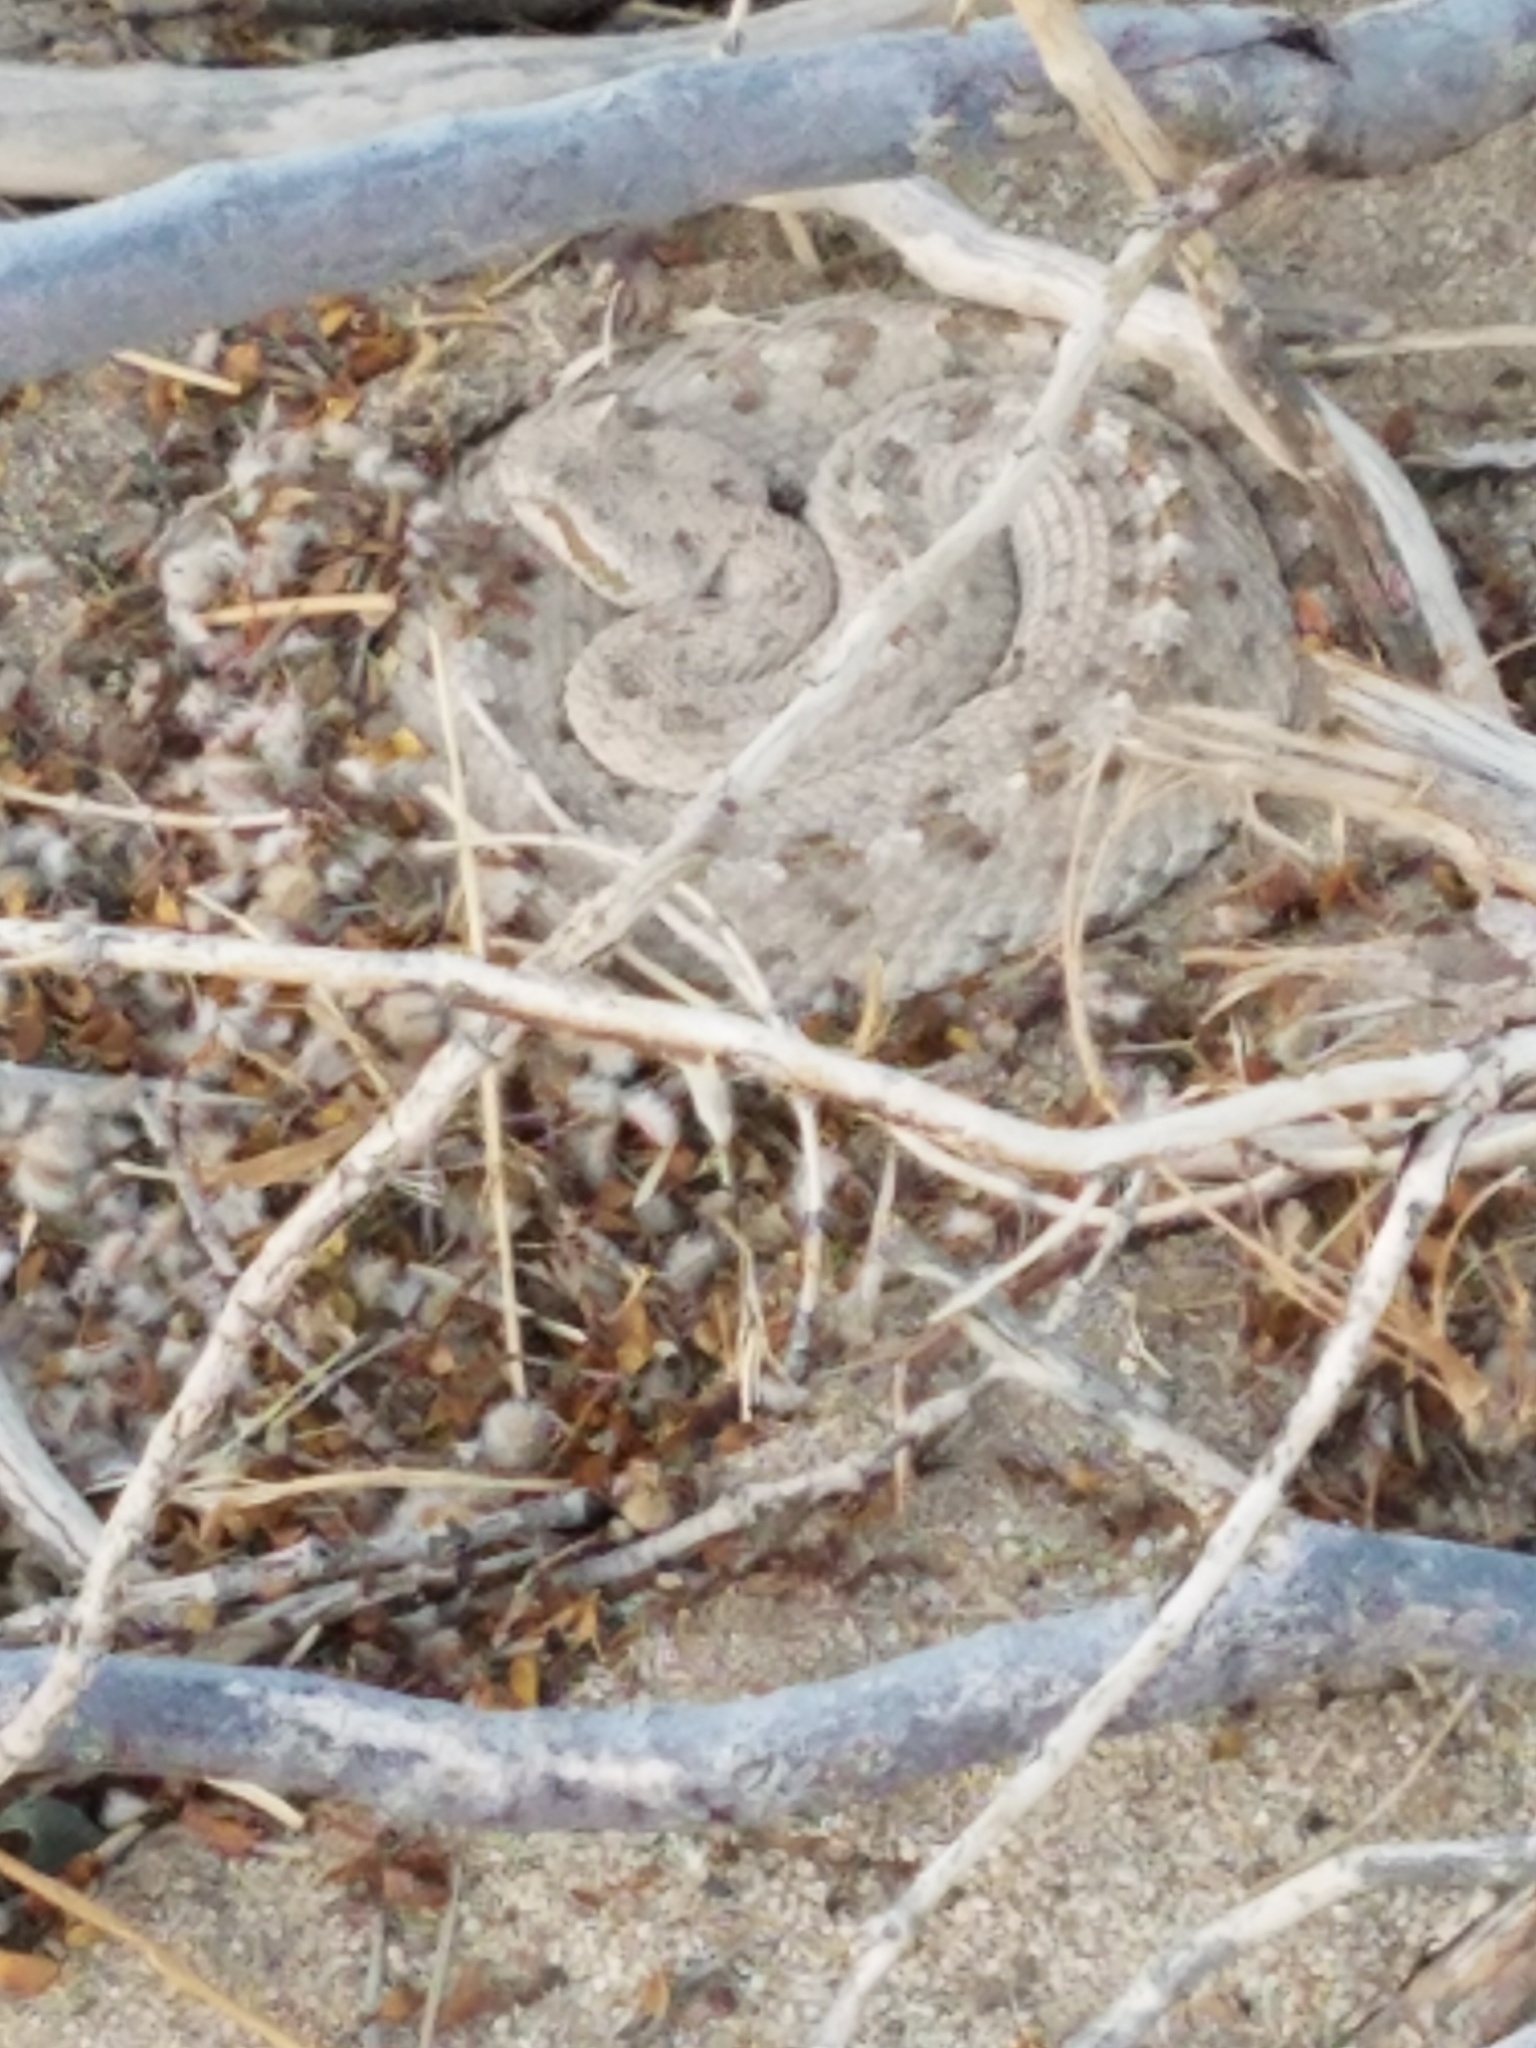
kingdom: Animalia
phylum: Chordata
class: Squamata
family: Viperidae
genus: Crotalus
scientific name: Crotalus cerastes
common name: Sidewinder
